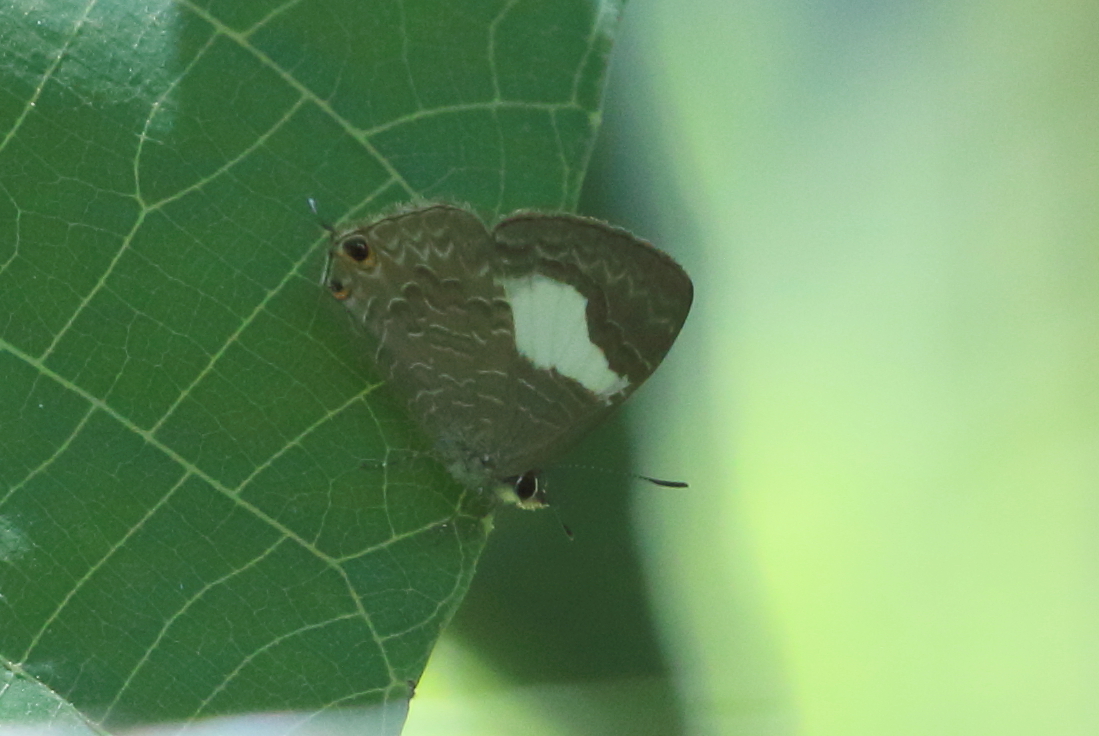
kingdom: Animalia
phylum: Arthropoda
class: Insecta
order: Lepidoptera
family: Lycaenidae
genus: Erysichton
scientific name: Erysichton lineata
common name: Hairy line blue
